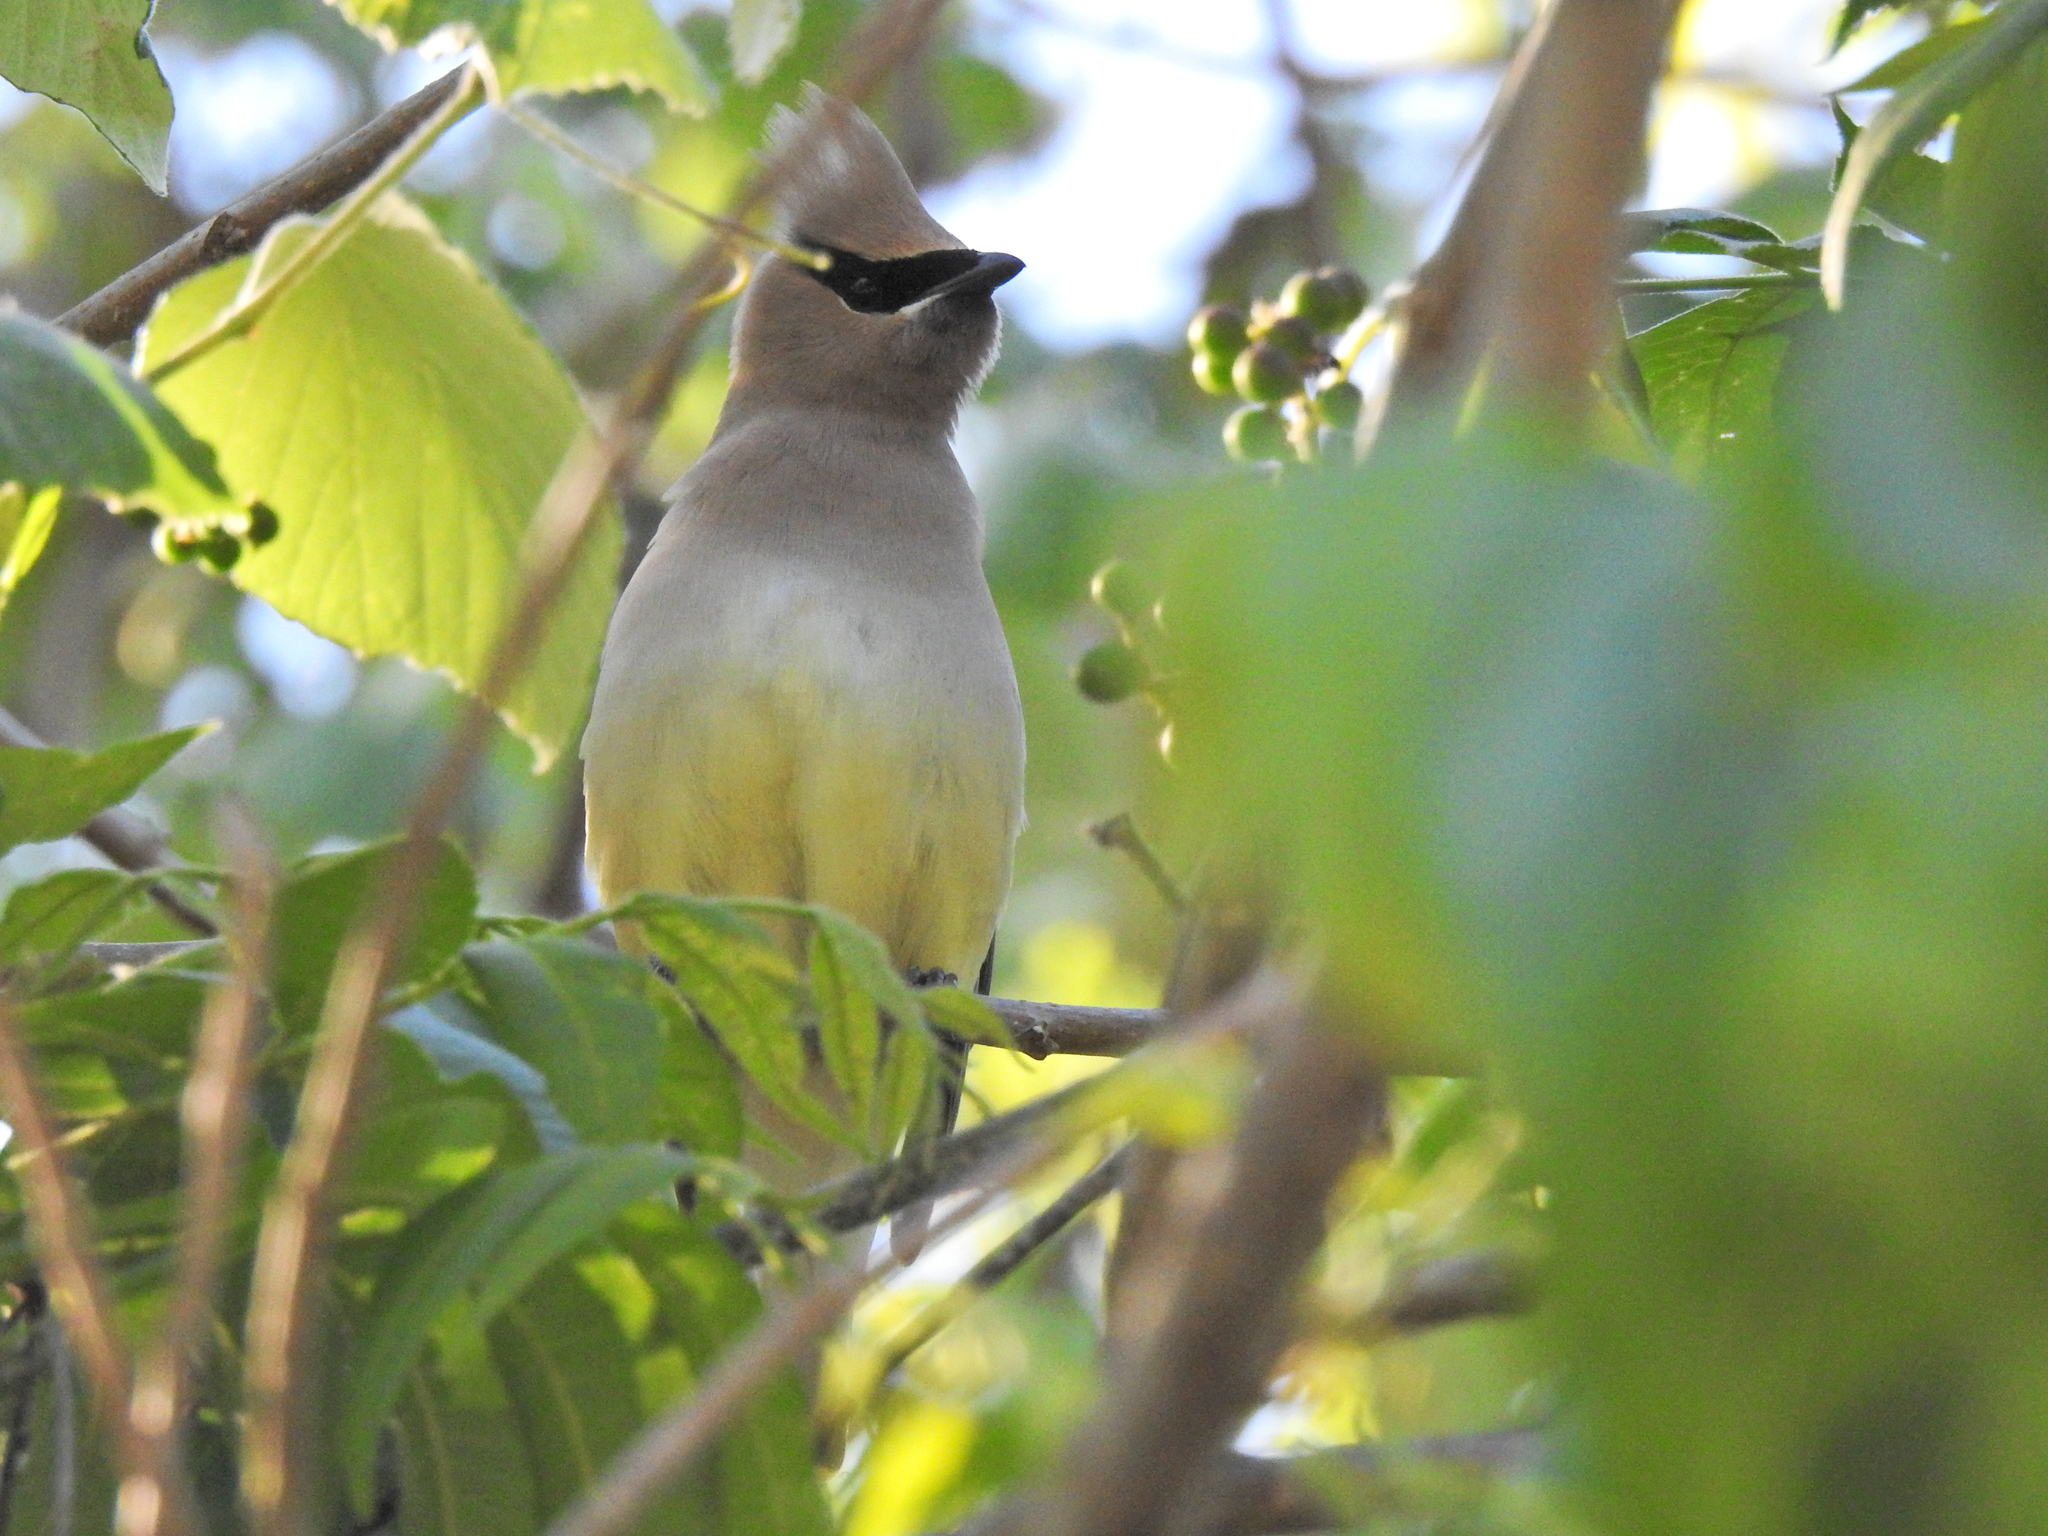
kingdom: Animalia
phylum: Chordata
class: Aves
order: Passeriformes
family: Bombycillidae
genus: Bombycilla
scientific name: Bombycilla cedrorum
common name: Cedar waxwing
